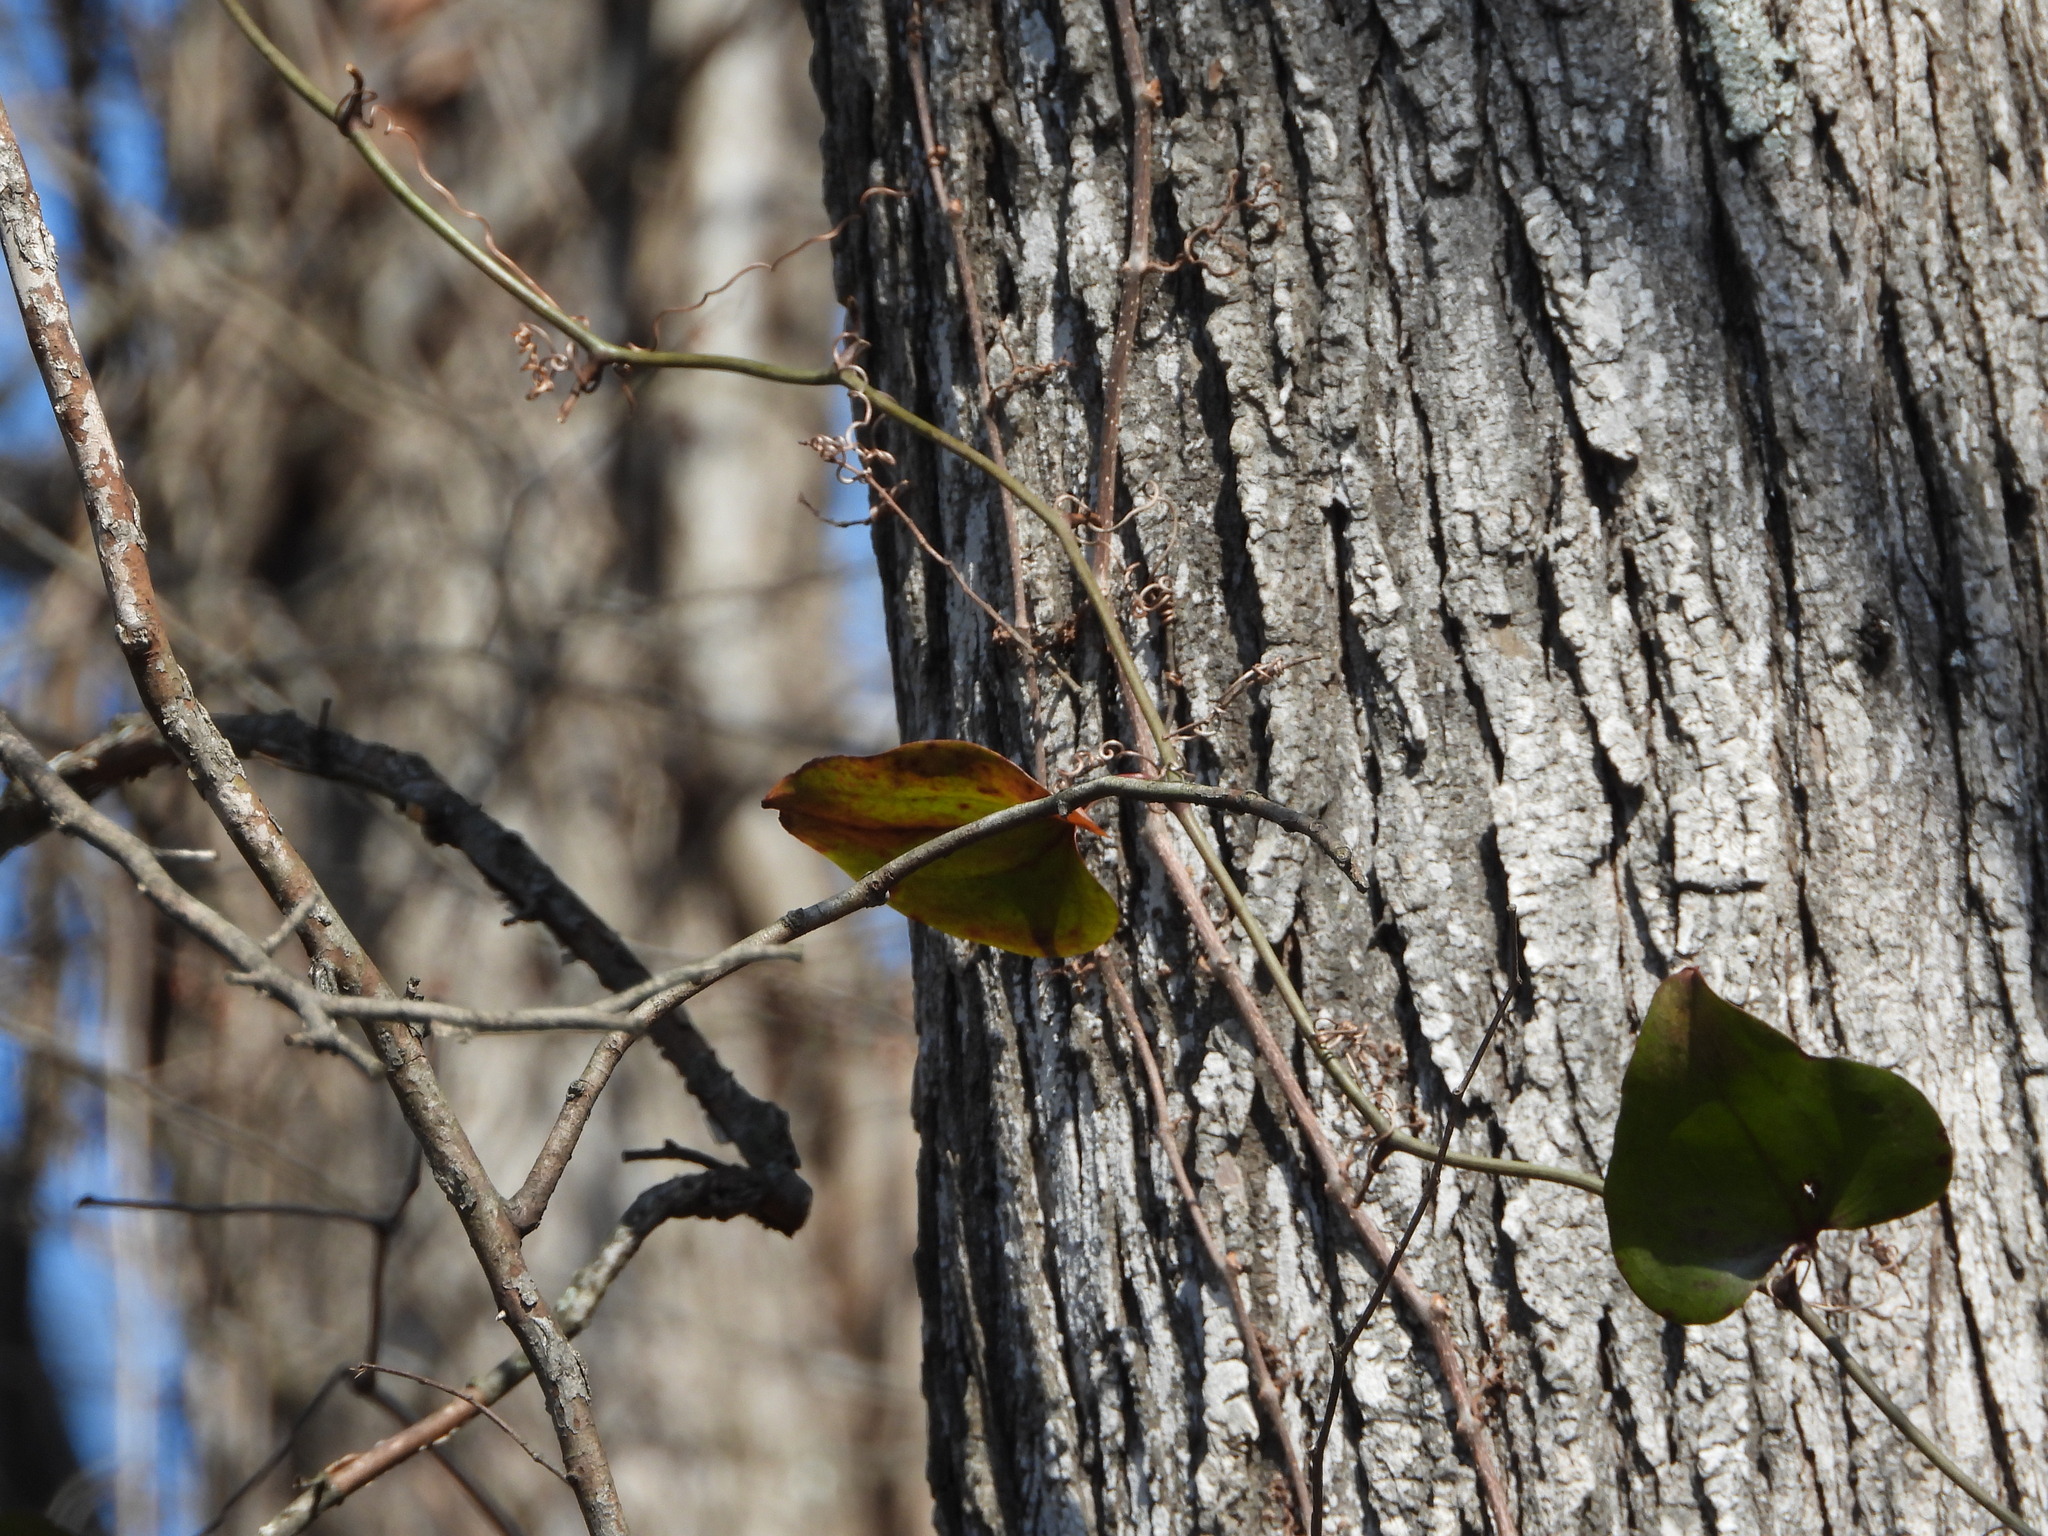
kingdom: Plantae
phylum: Tracheophyta
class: Liliopsida
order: Liliales
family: Smilacaceae
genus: Smilax
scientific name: Smilax glauca
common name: Cat greenbrier
